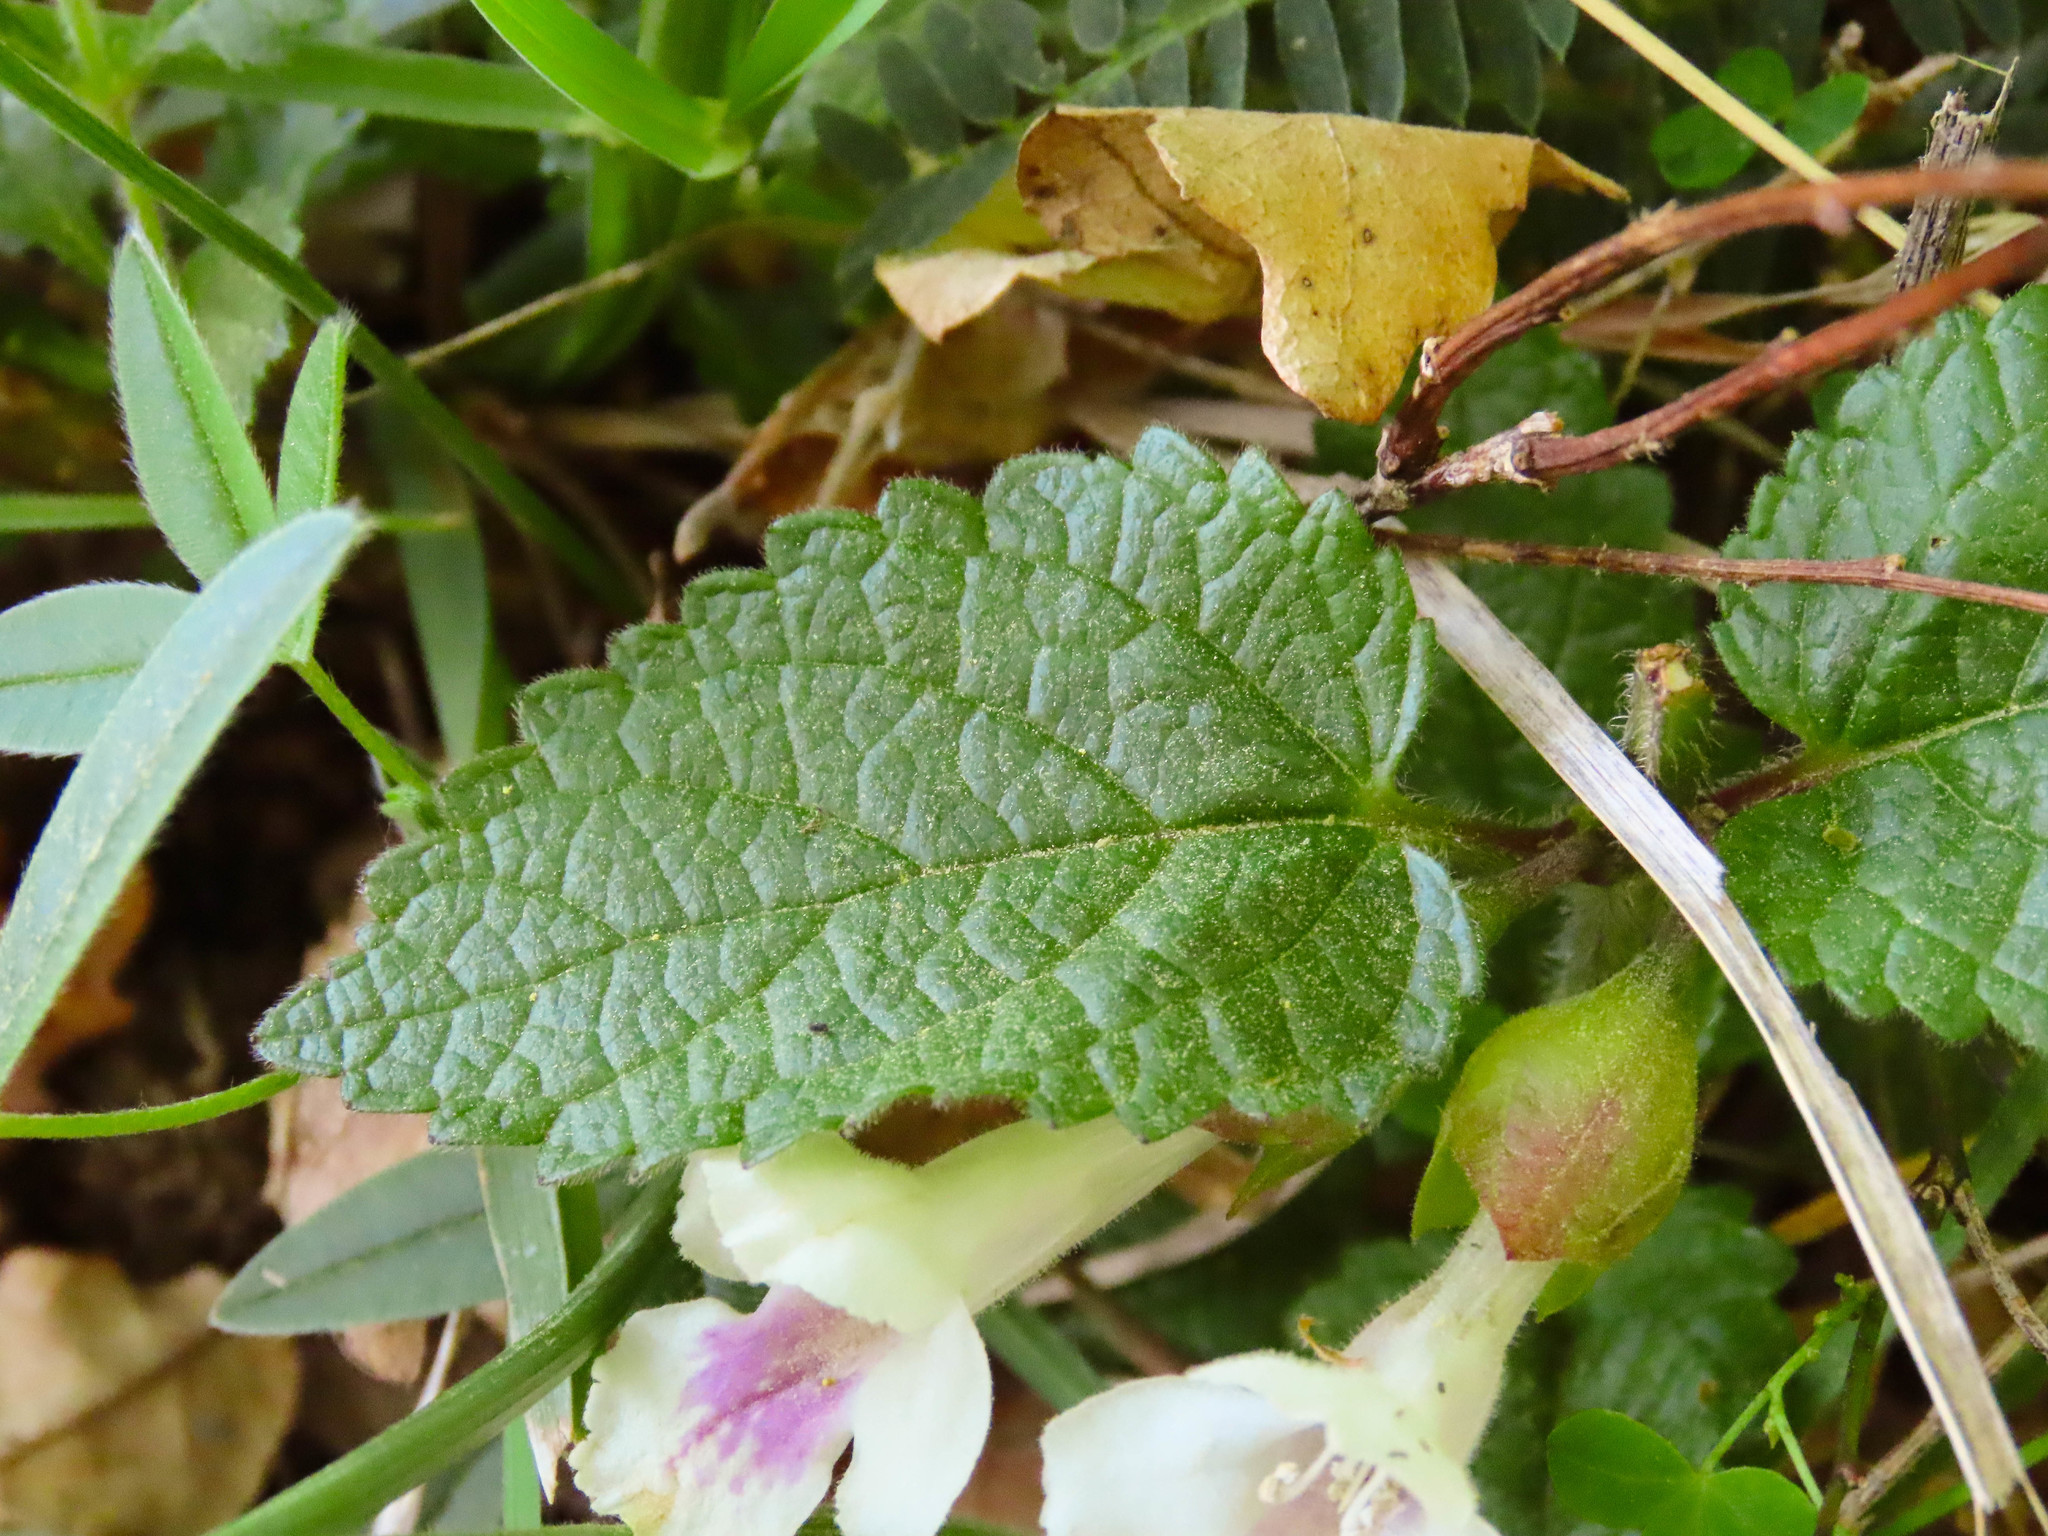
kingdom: Plantae
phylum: Tracheophyta
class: Magnoliopsida
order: Lamiales
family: Lamiaceae
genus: Melittis
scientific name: Melittis melissophyllum
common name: Bastard balm
